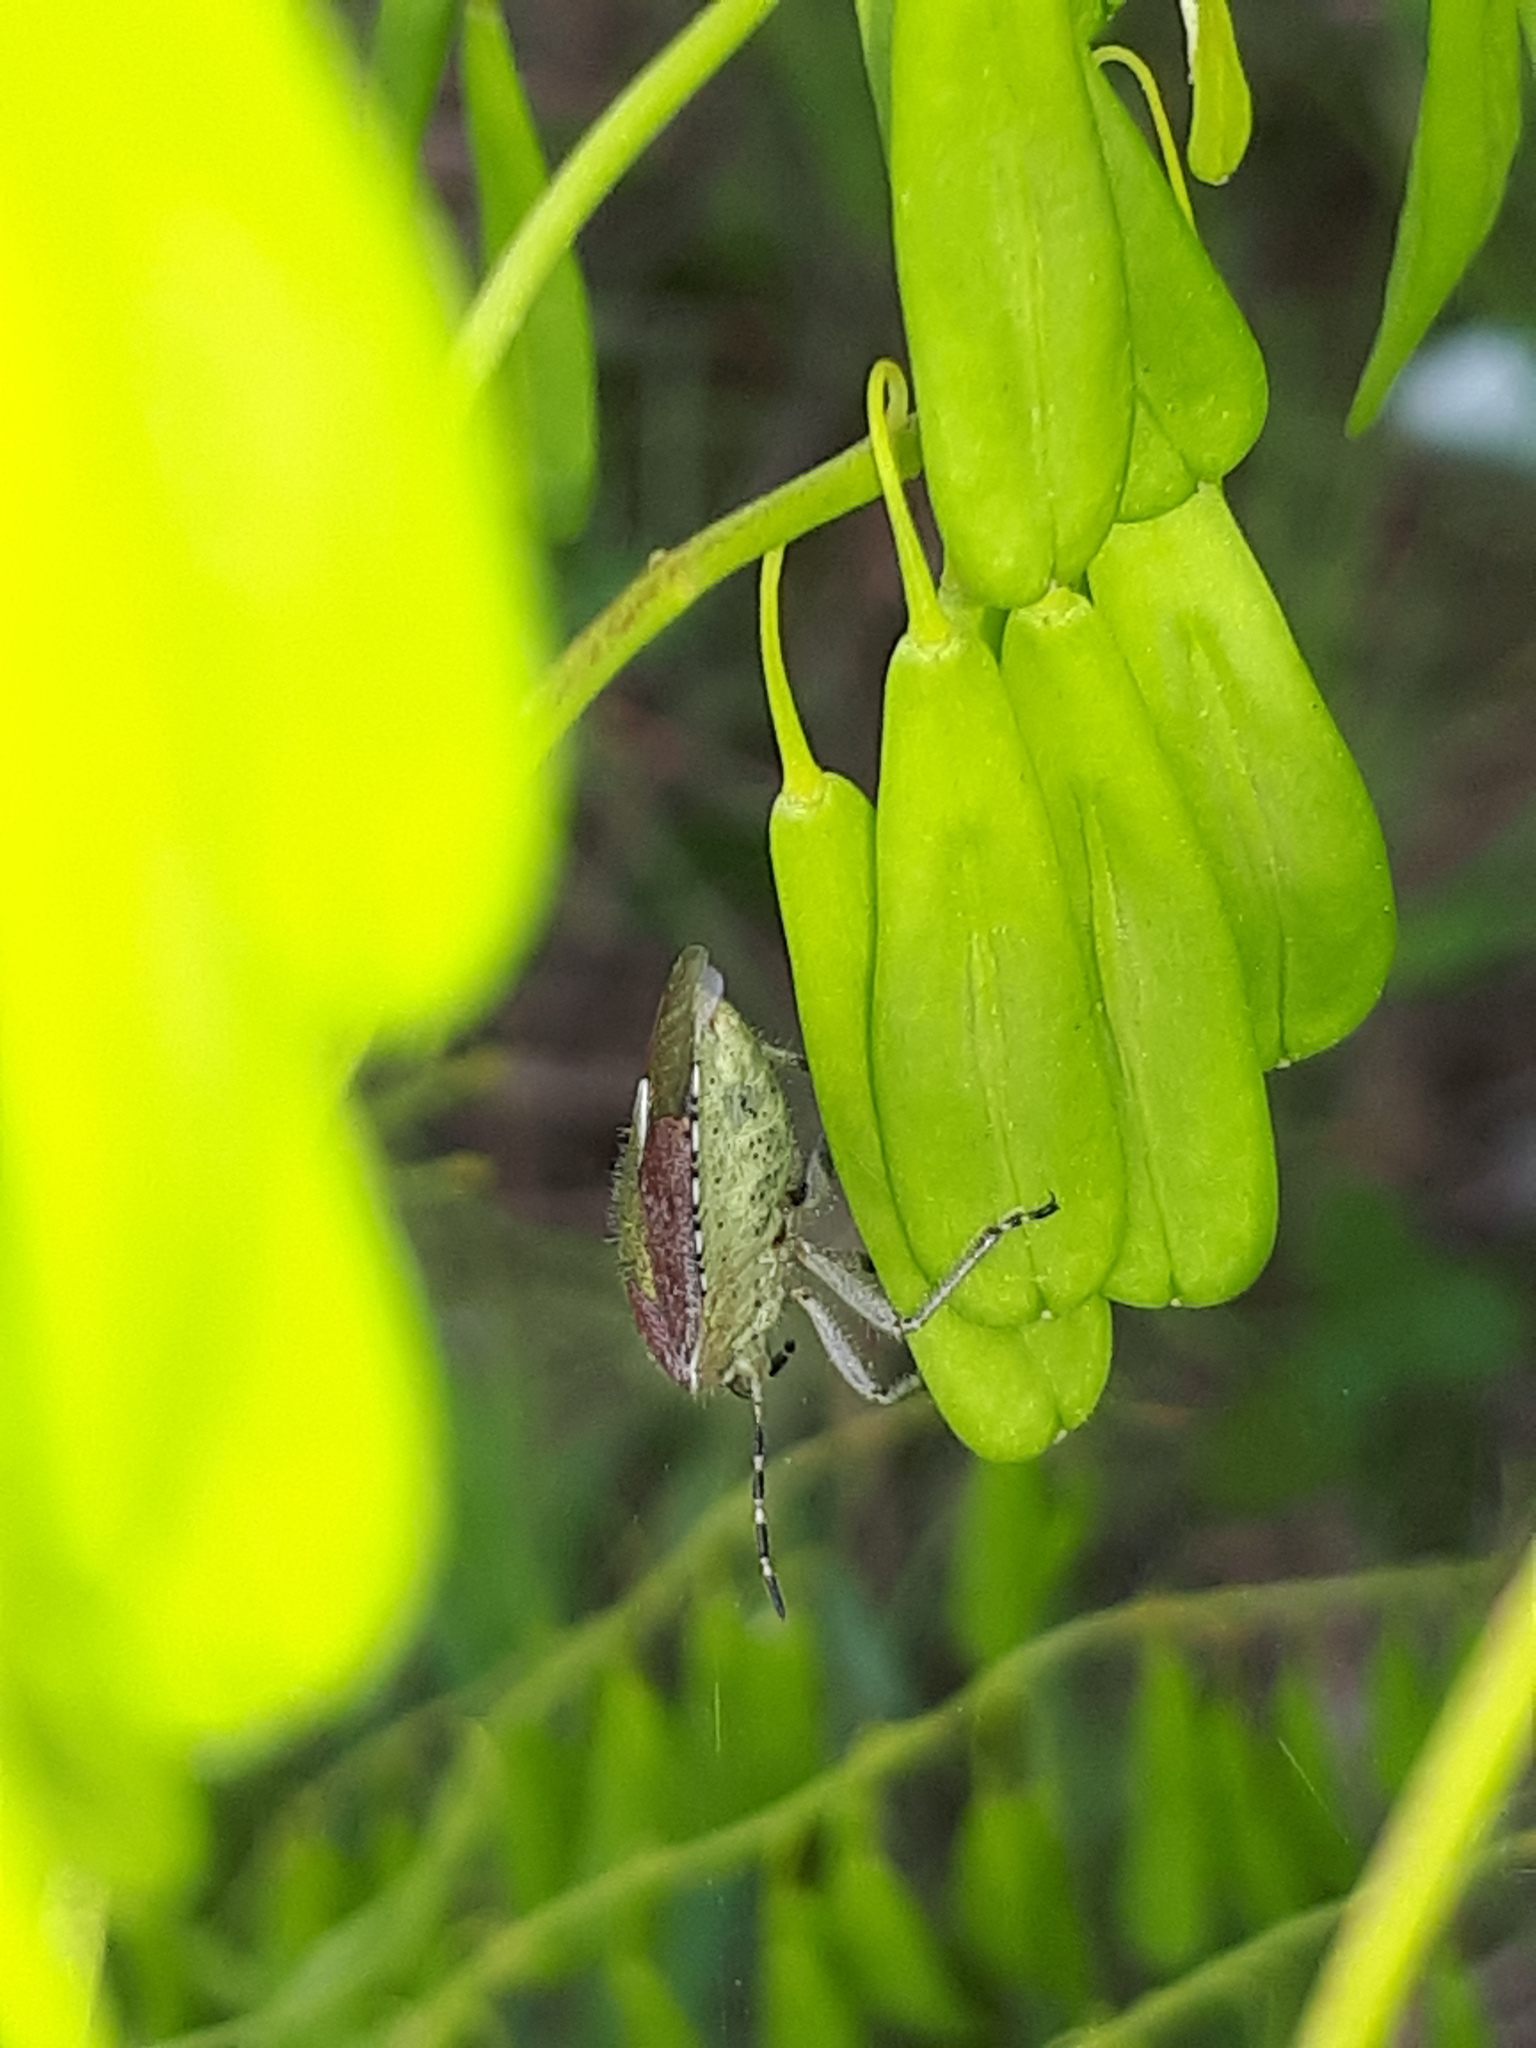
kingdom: Animalia
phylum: Arthropoda
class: Insecta
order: Hemiptera
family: Pentatomidae
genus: Dolycoris
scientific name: Dolycoris baccarum
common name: Sloe bug
